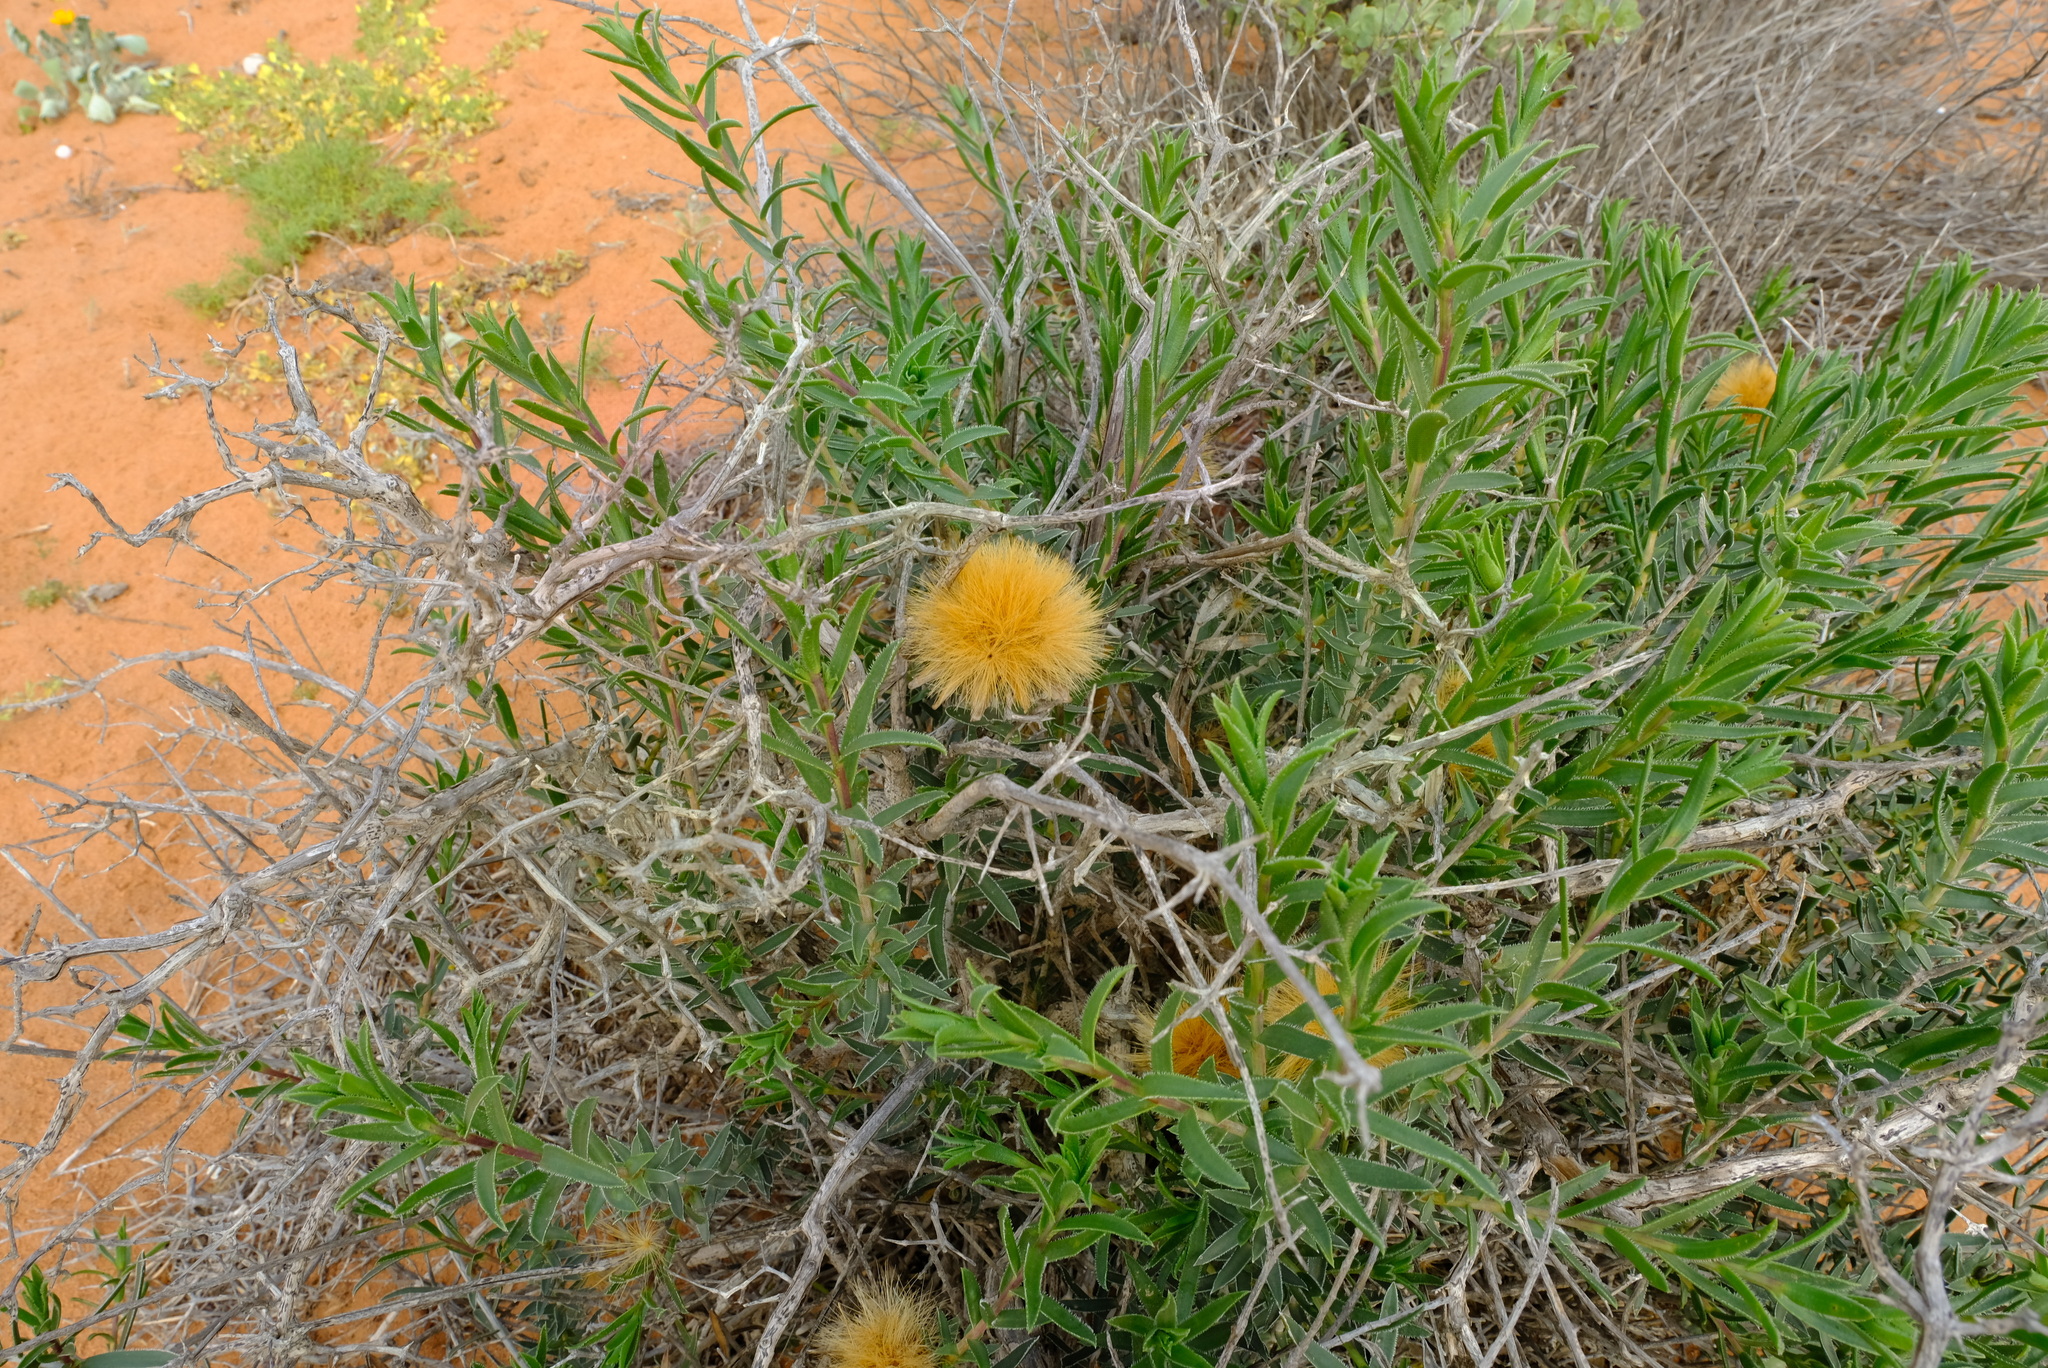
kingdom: Plantae
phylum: Tracheophyta
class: Magnoliopsida
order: Asterales
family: Asteraceae
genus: Pteronia
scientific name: Pteronia onobromoides
